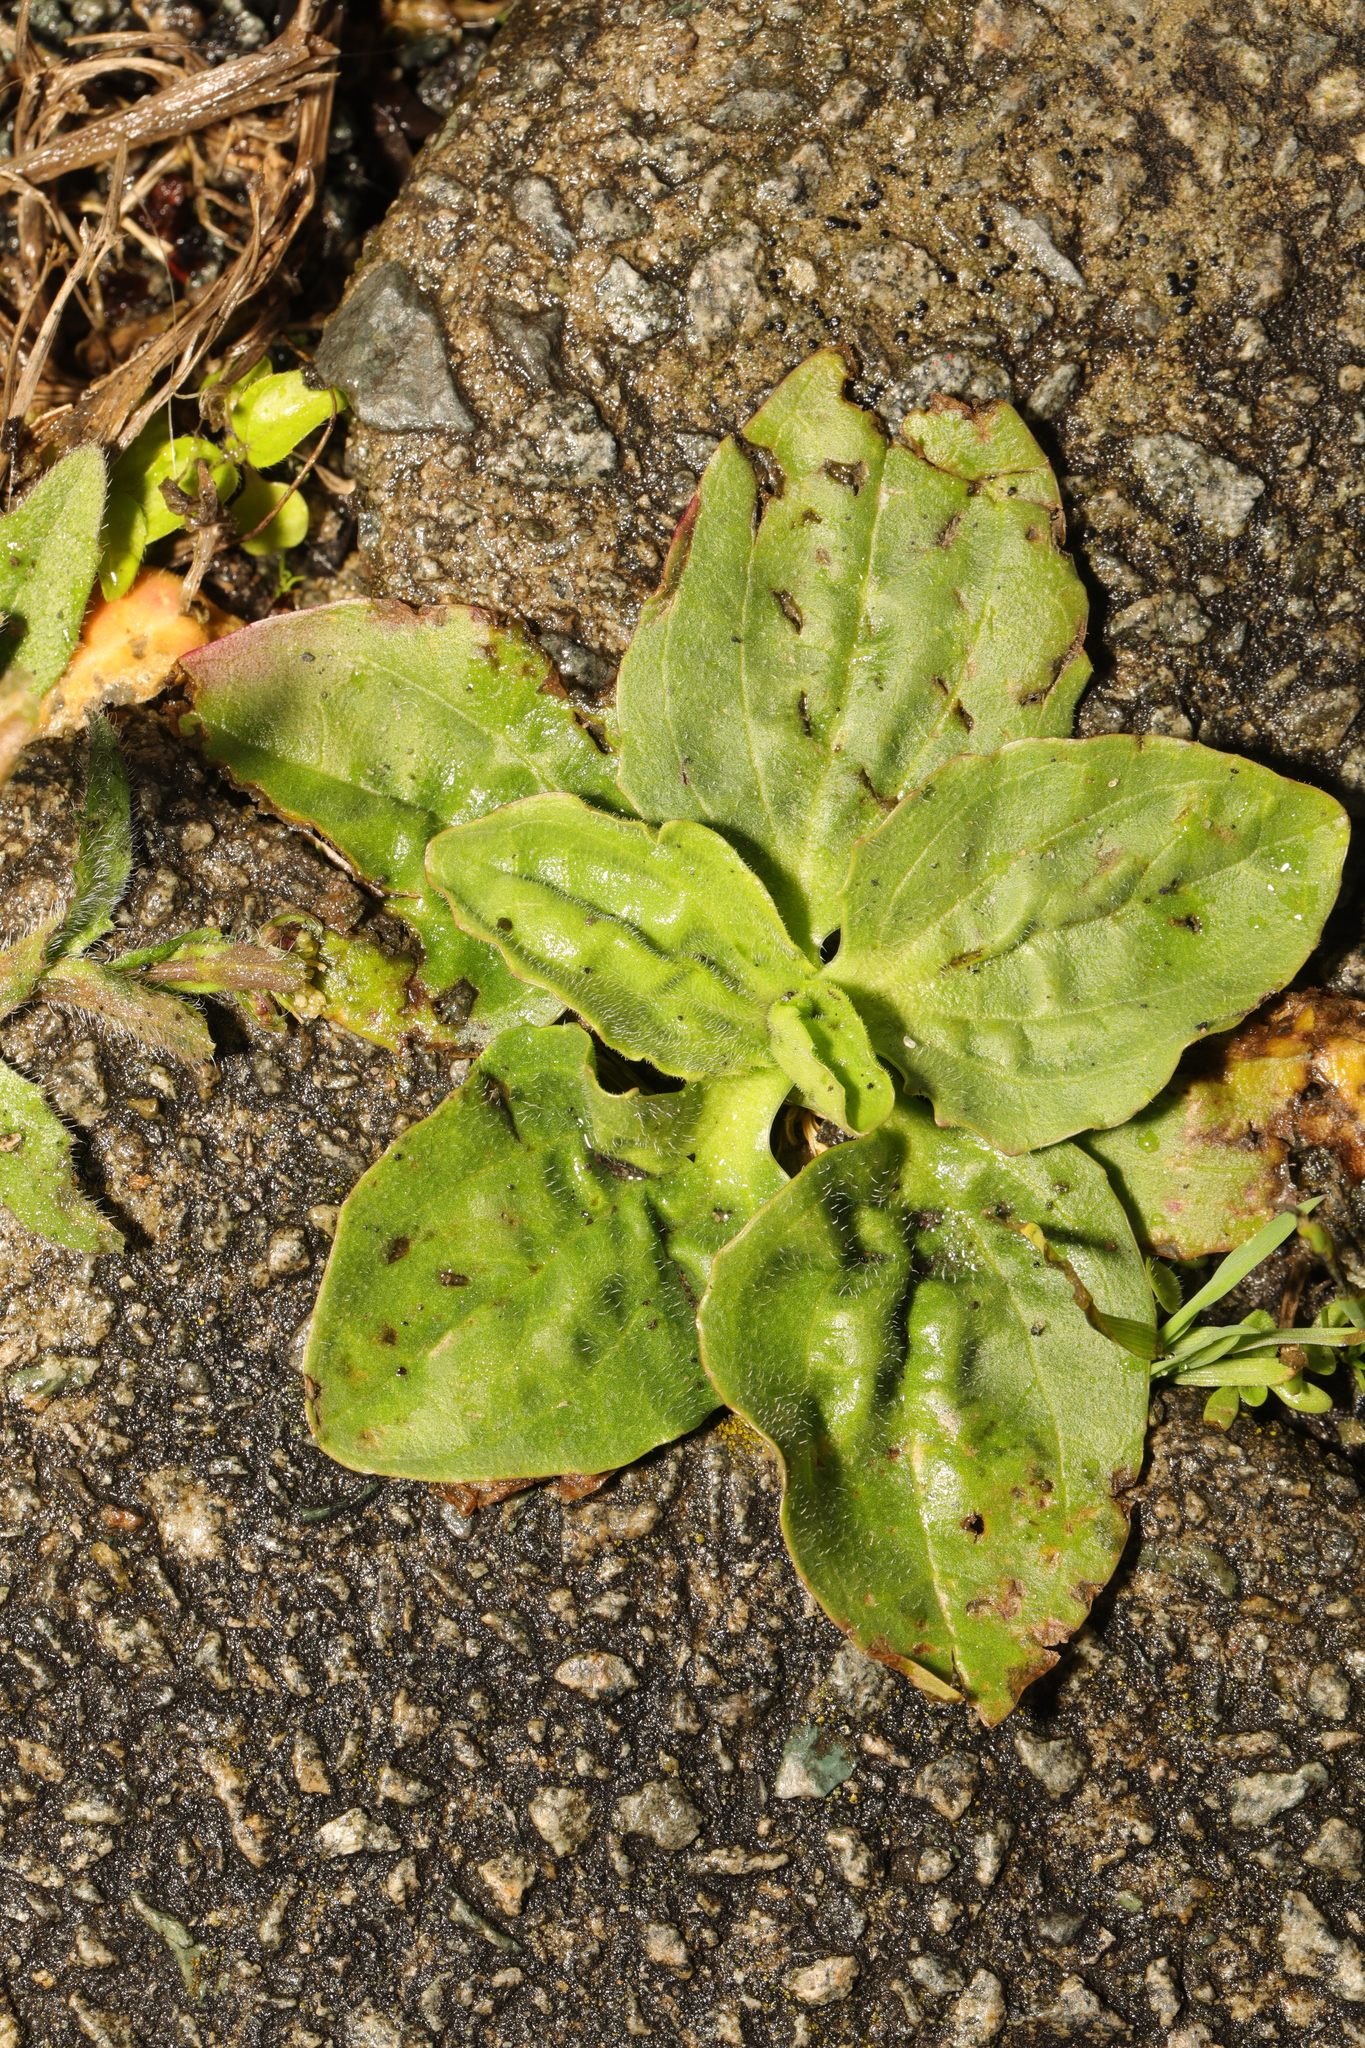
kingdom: Plantae
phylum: Tracheophyta
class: Magnoliopsida
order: Lamiales
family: Plantaginaceae
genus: Plantago
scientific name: Plantago major
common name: Common plantain
